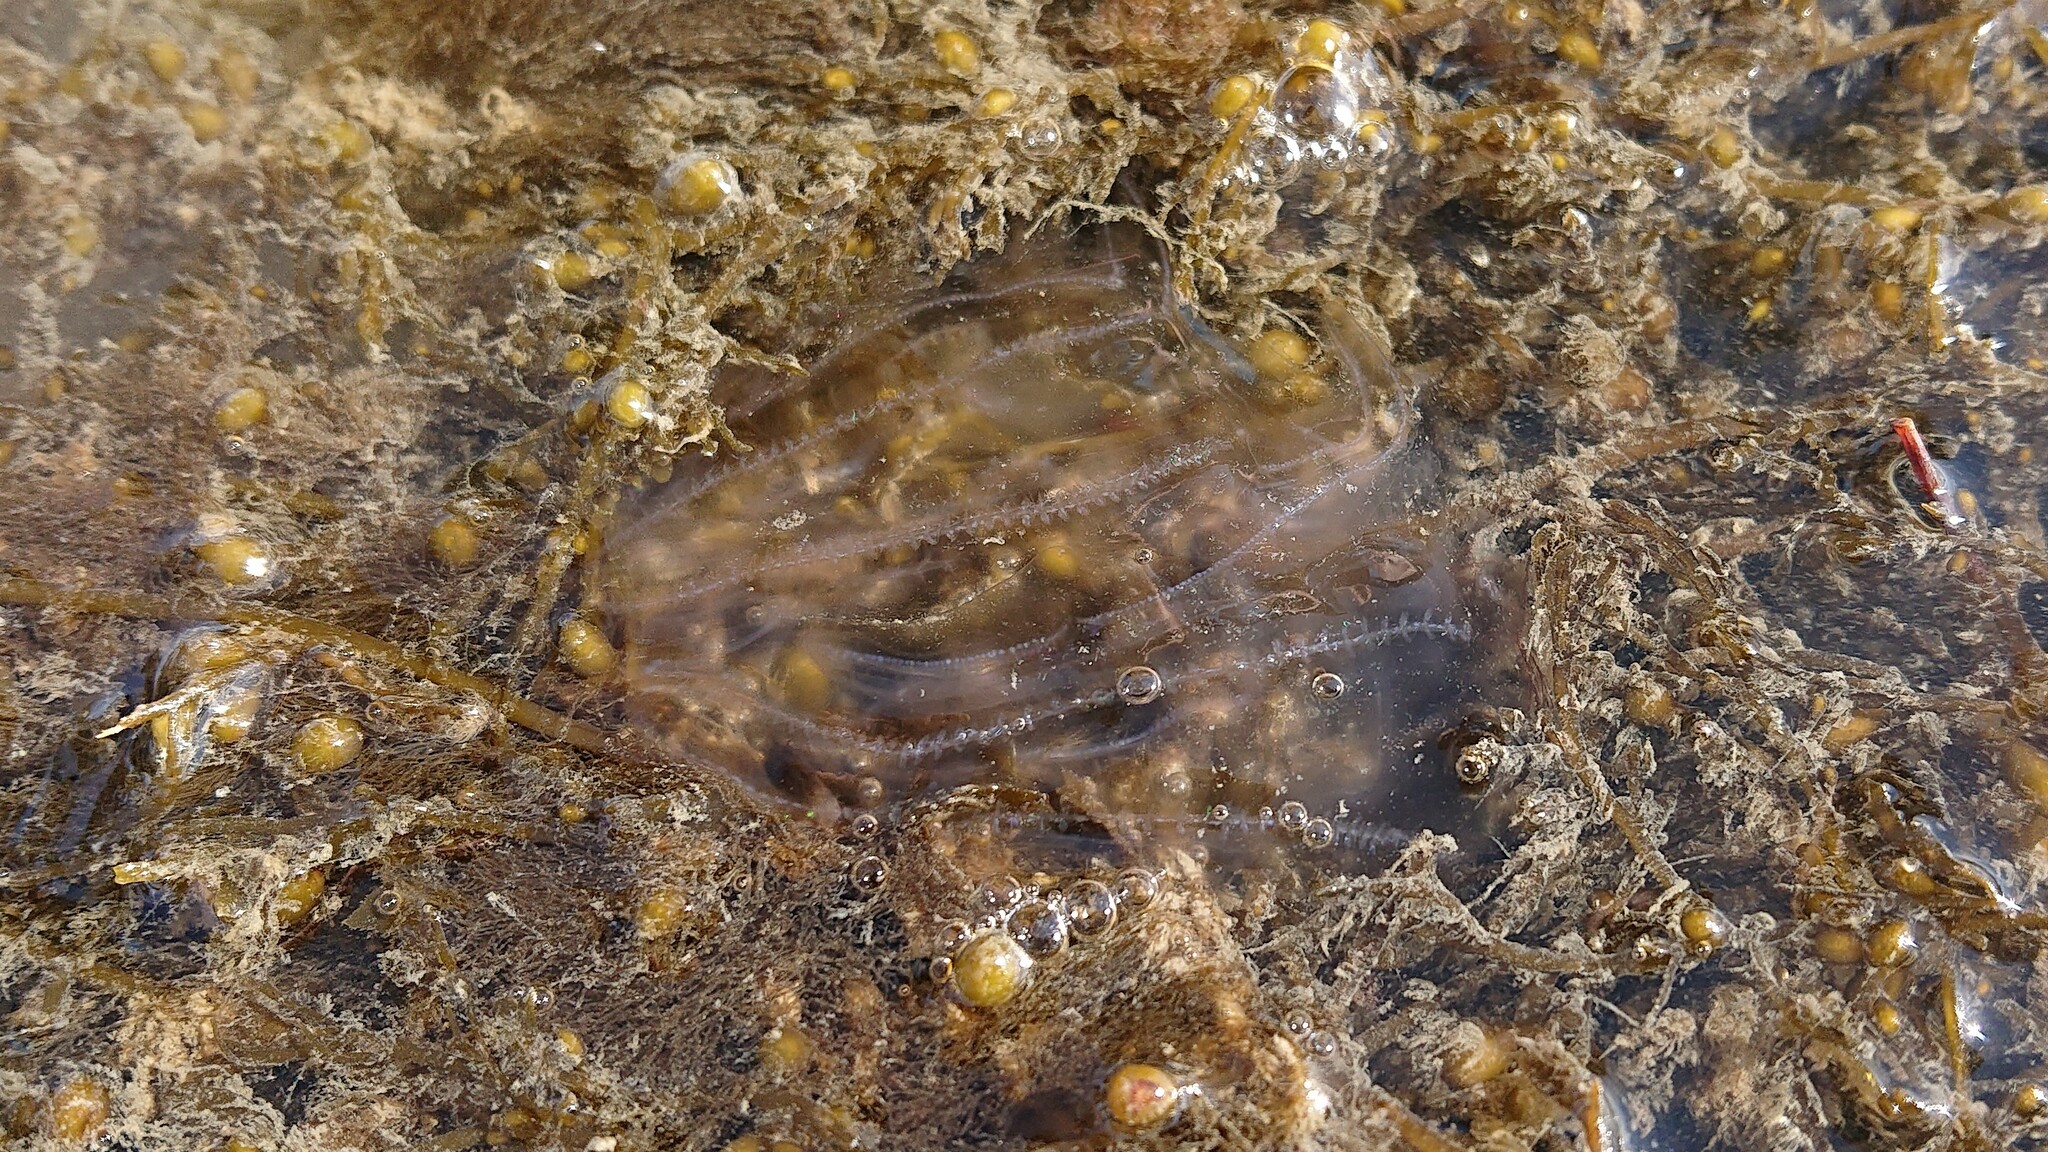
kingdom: Animalia
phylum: Ctenophora
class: Tentaculata
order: Lobata
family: Bolinopsidae
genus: Mnemiopsis
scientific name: Mnemiopsis leidyi
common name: American comb jelly
